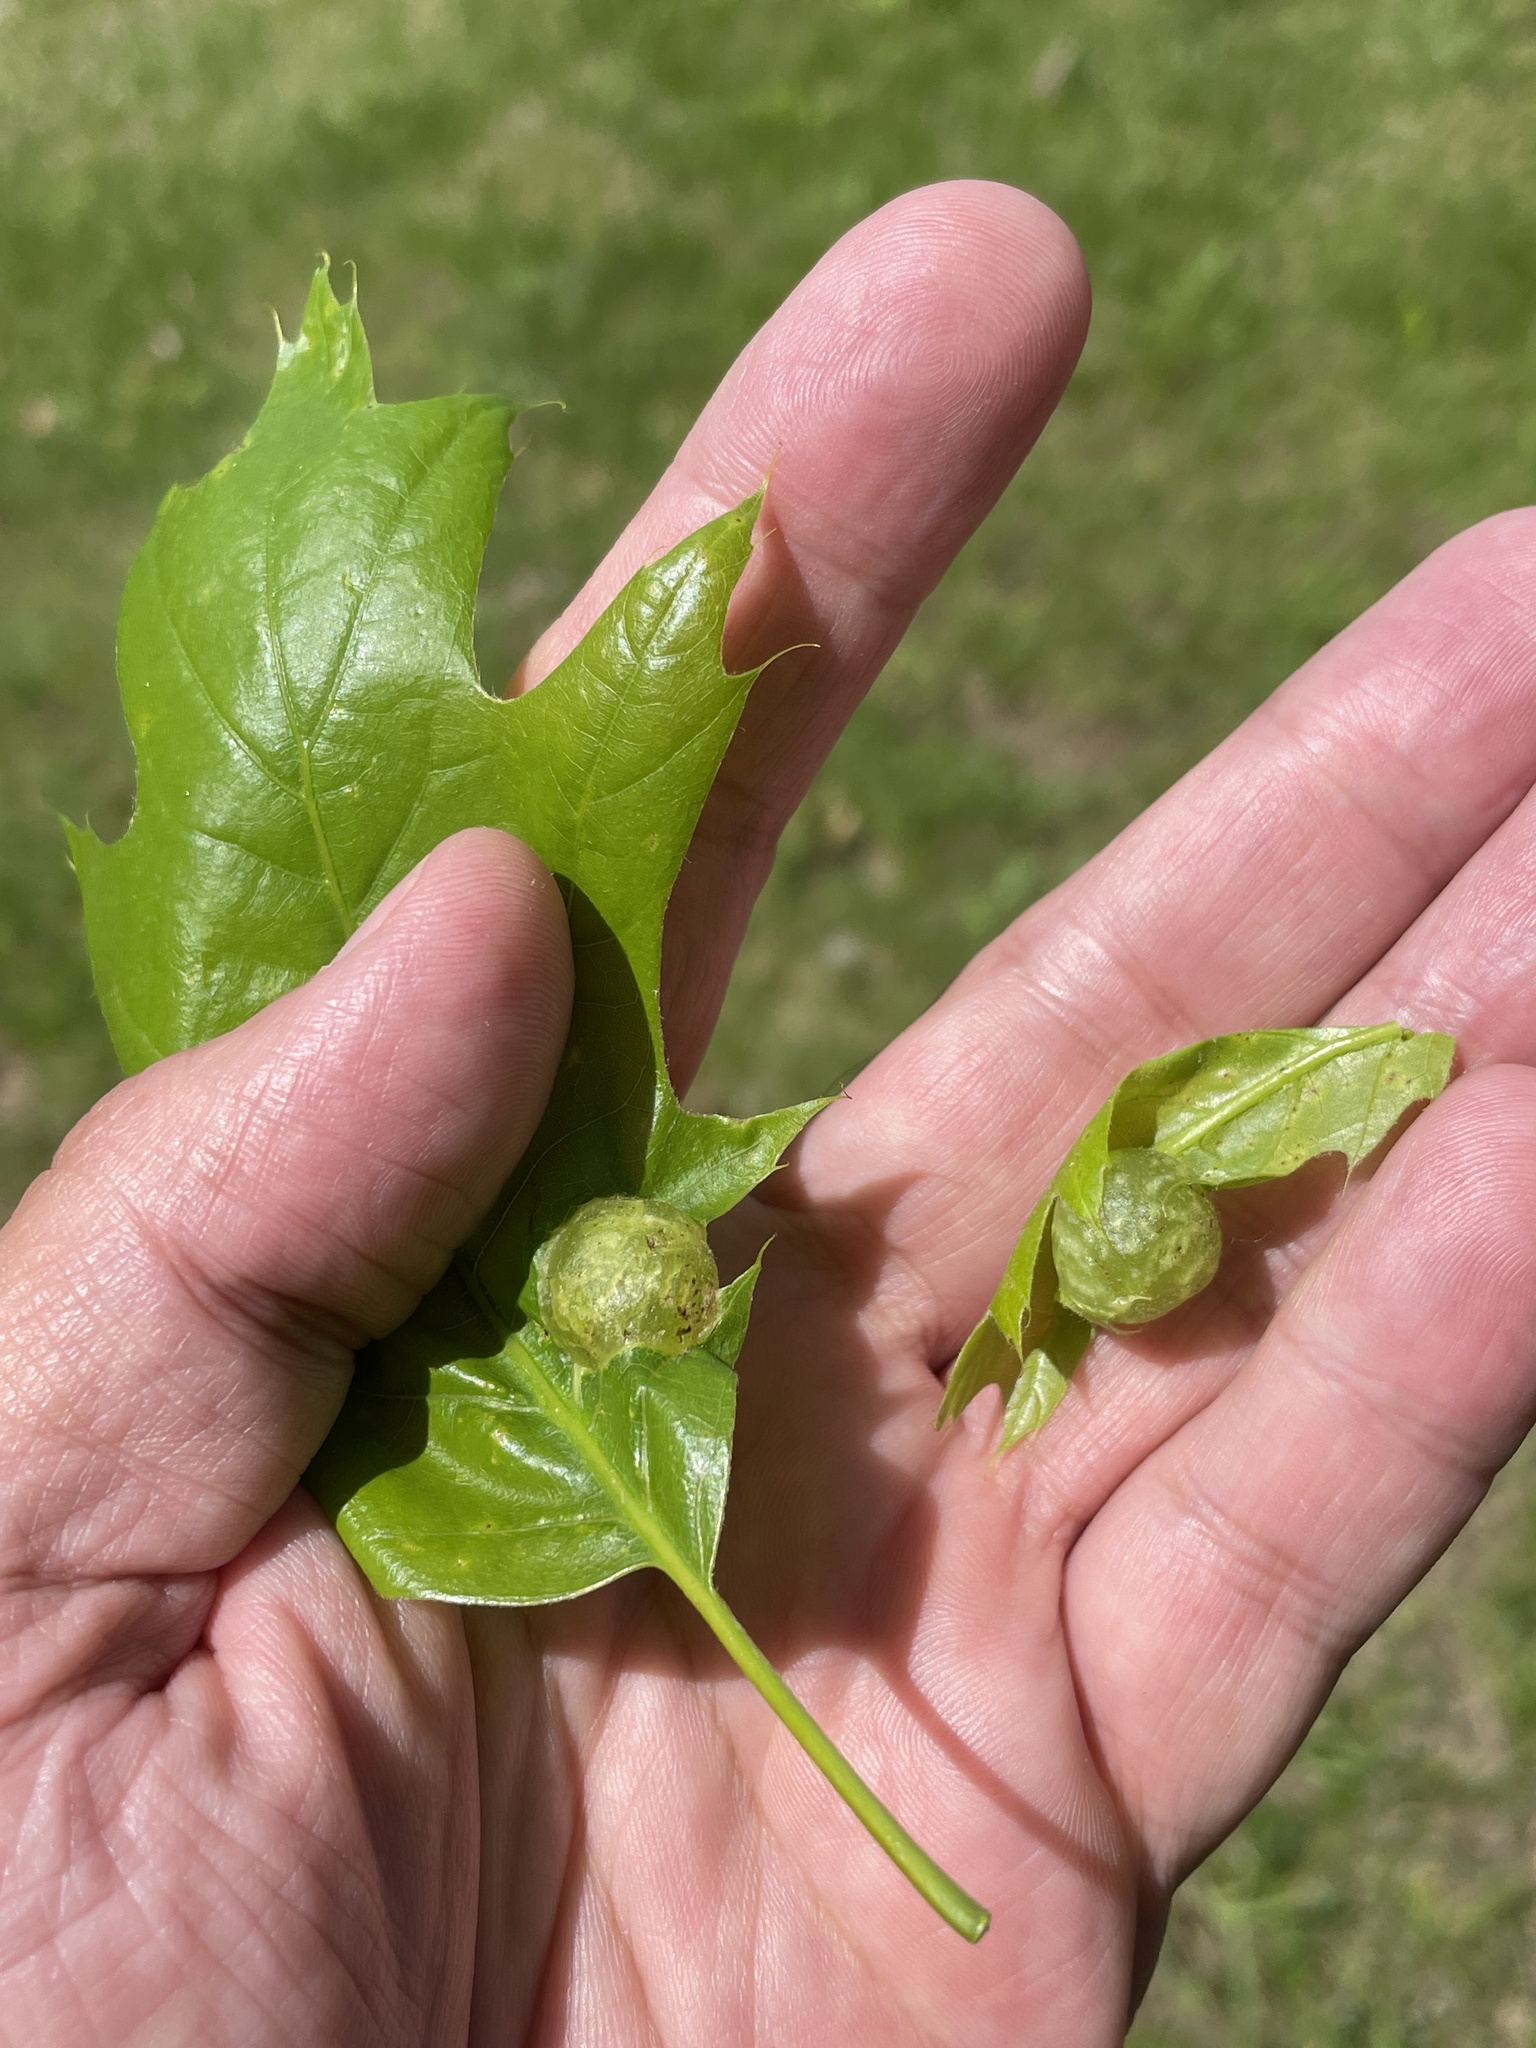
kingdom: Animalia
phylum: Arthropoda
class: Insecta
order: Hymenoptera
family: Cynipidae
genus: Dryocosmus
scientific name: Dryocosmus quercuspalustris
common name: Succulent oak gall wasp
